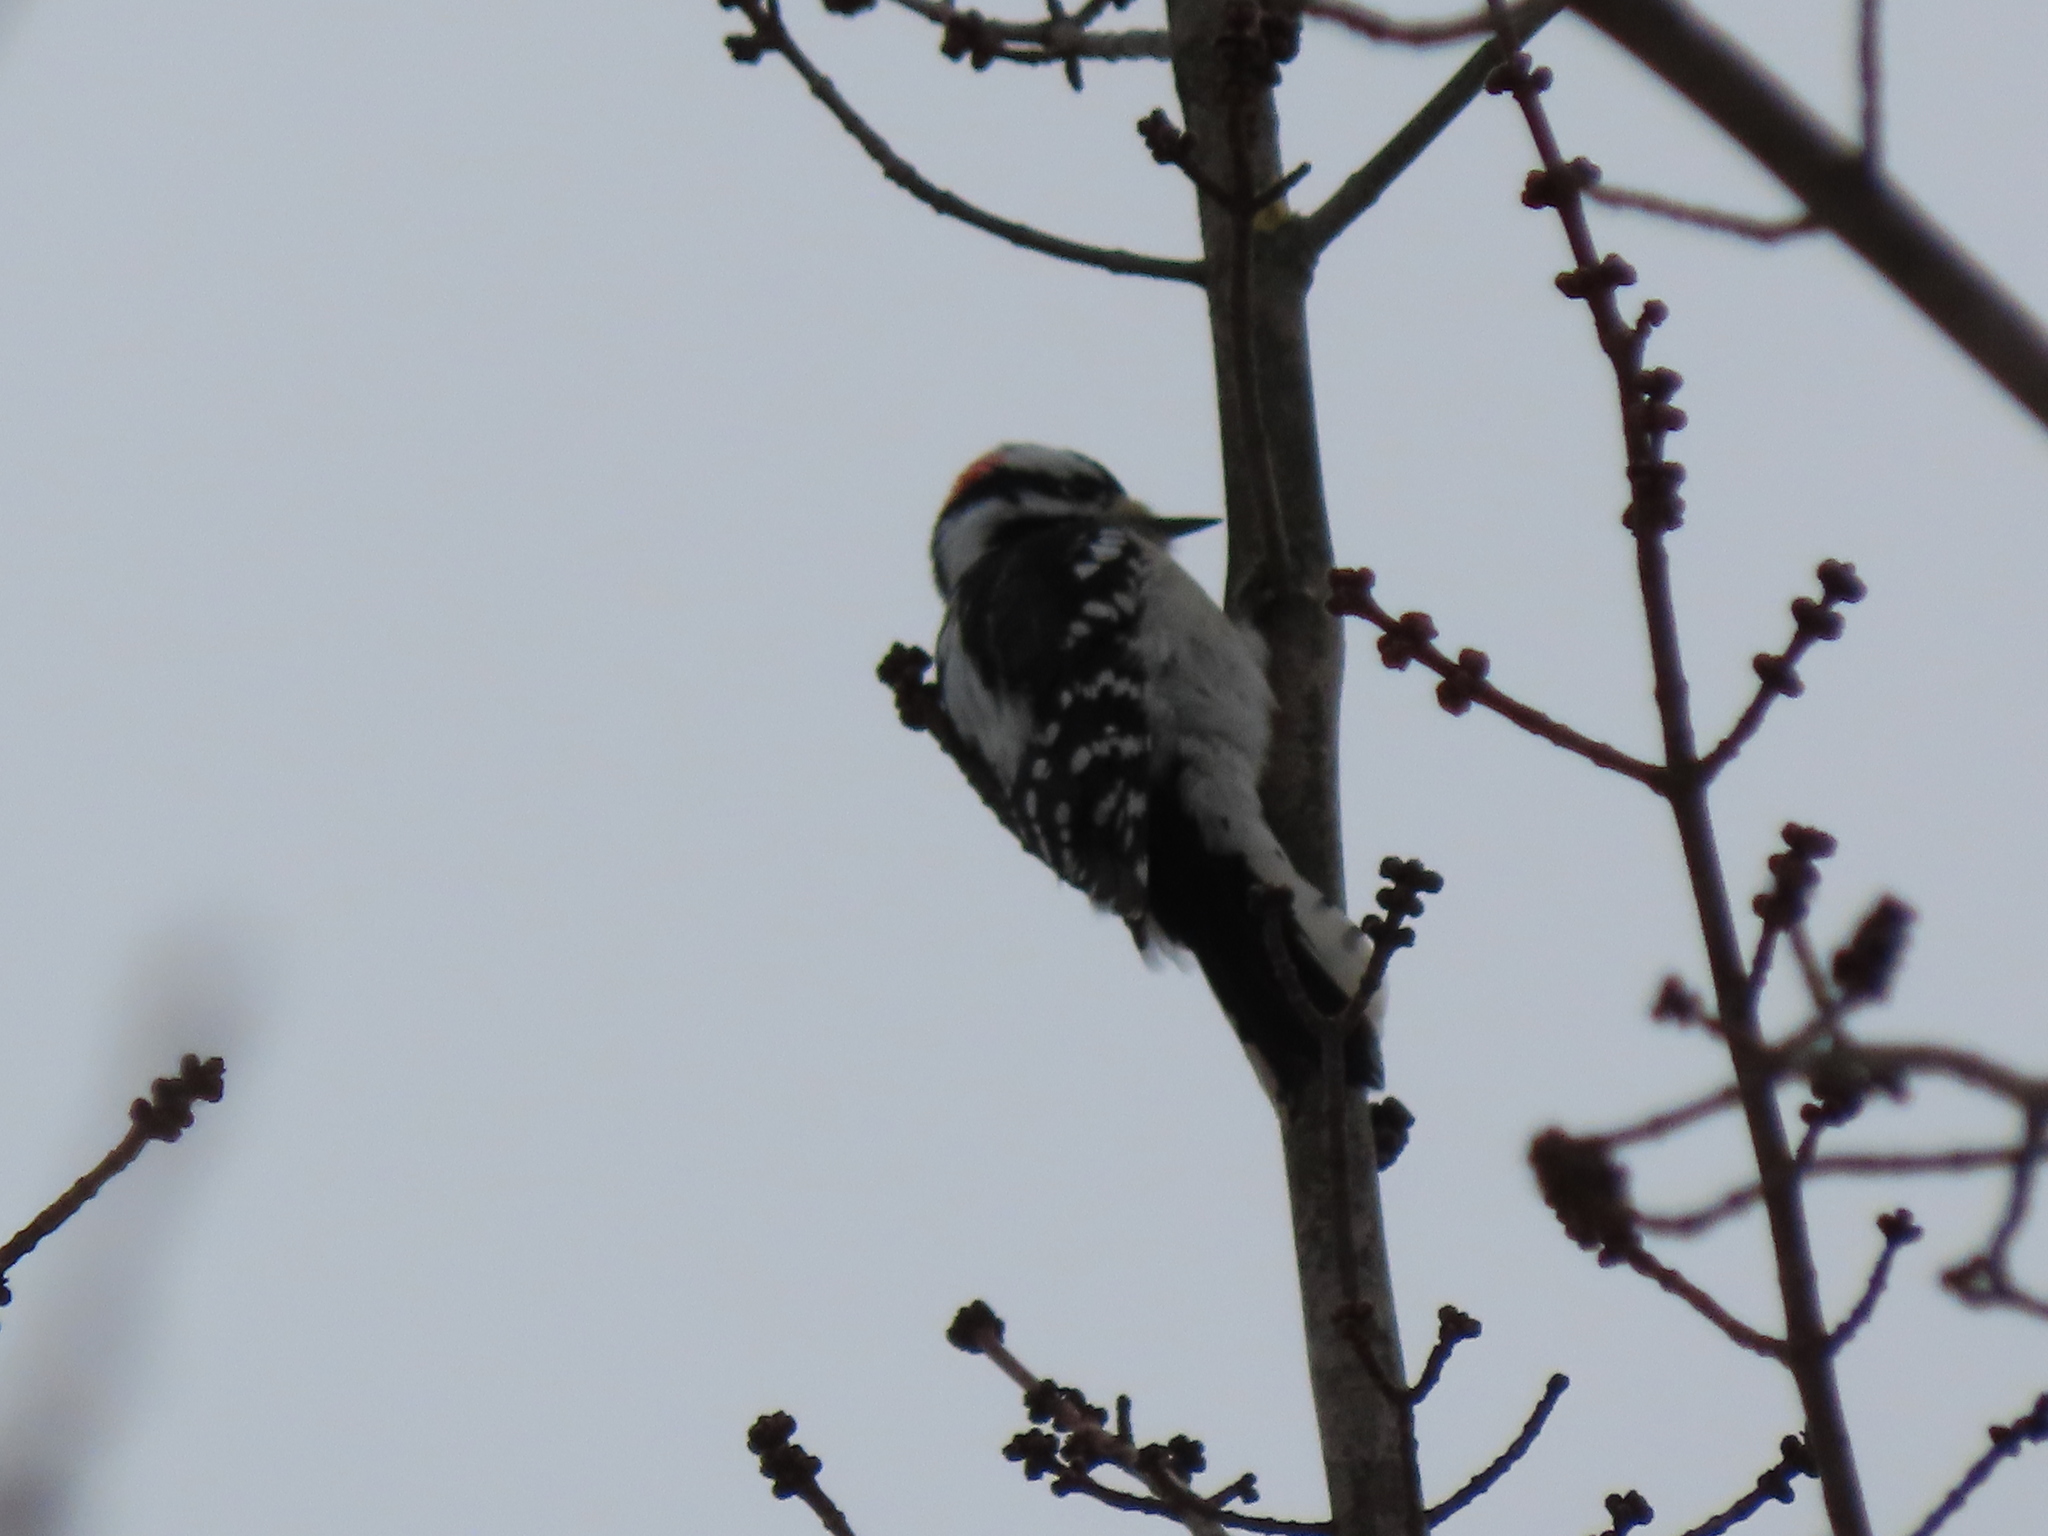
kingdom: Animalia
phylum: Chordata
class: Aves
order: Piciformes
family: Picidae
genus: Dryobates
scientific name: Dryobates pubescens
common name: Downy woodpecker
